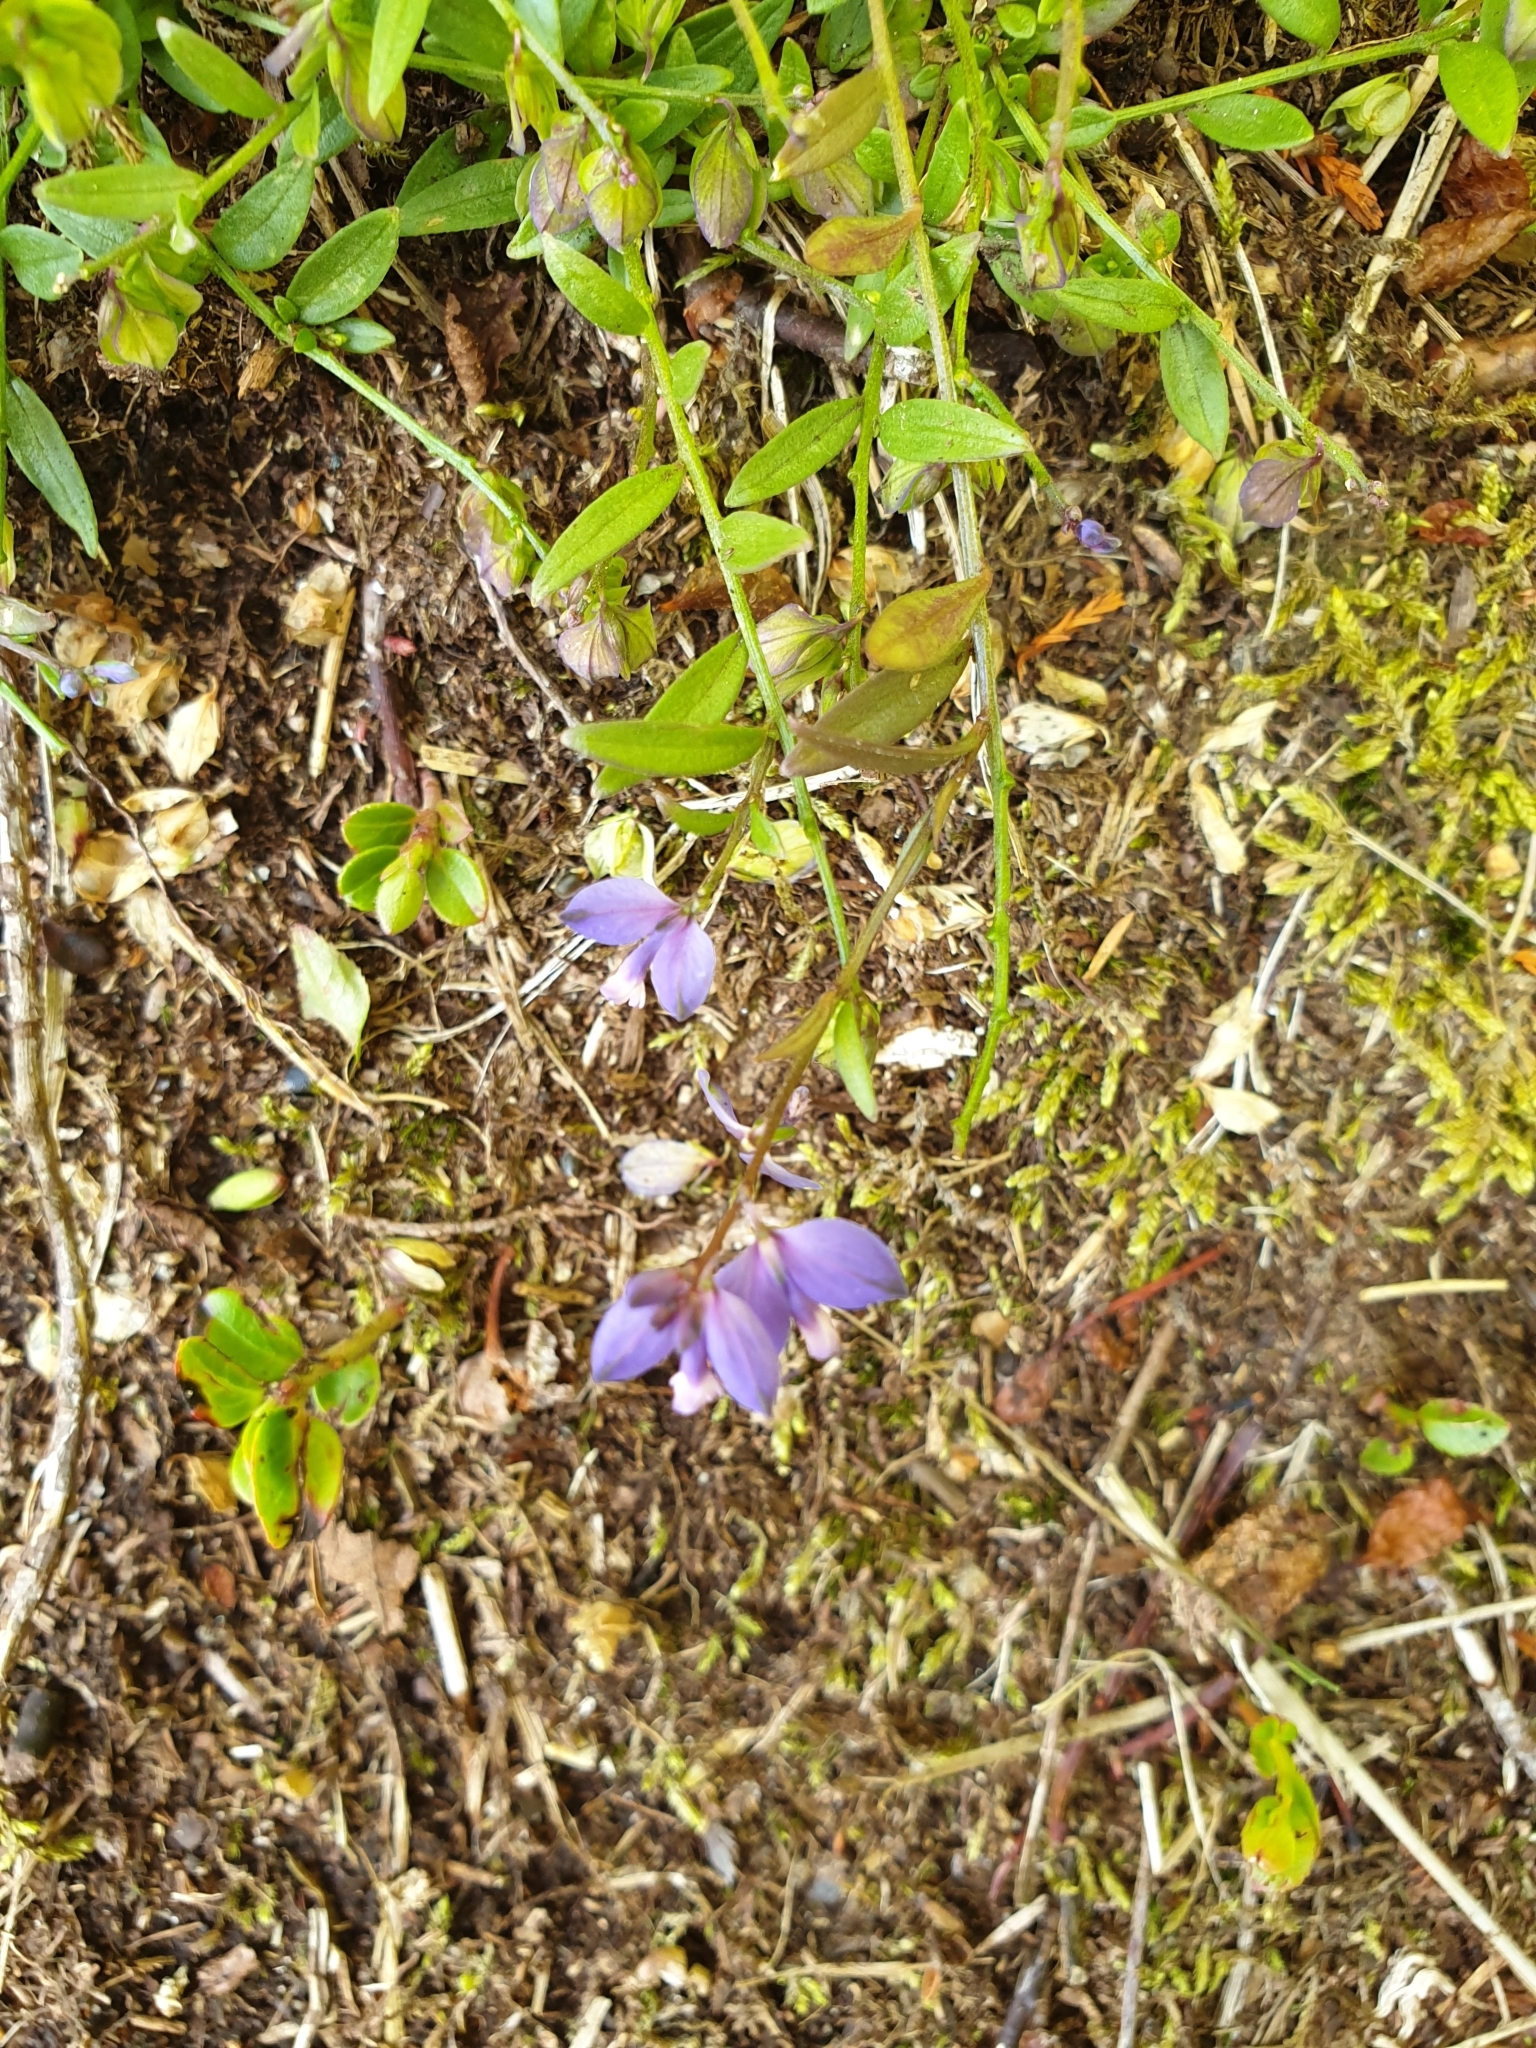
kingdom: Plantae
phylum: Tracheophyta
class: Magnoliopsida
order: Fabales
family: Polygalaceae
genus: Polygala
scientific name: Polygala vulgaris
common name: Common milkwort
